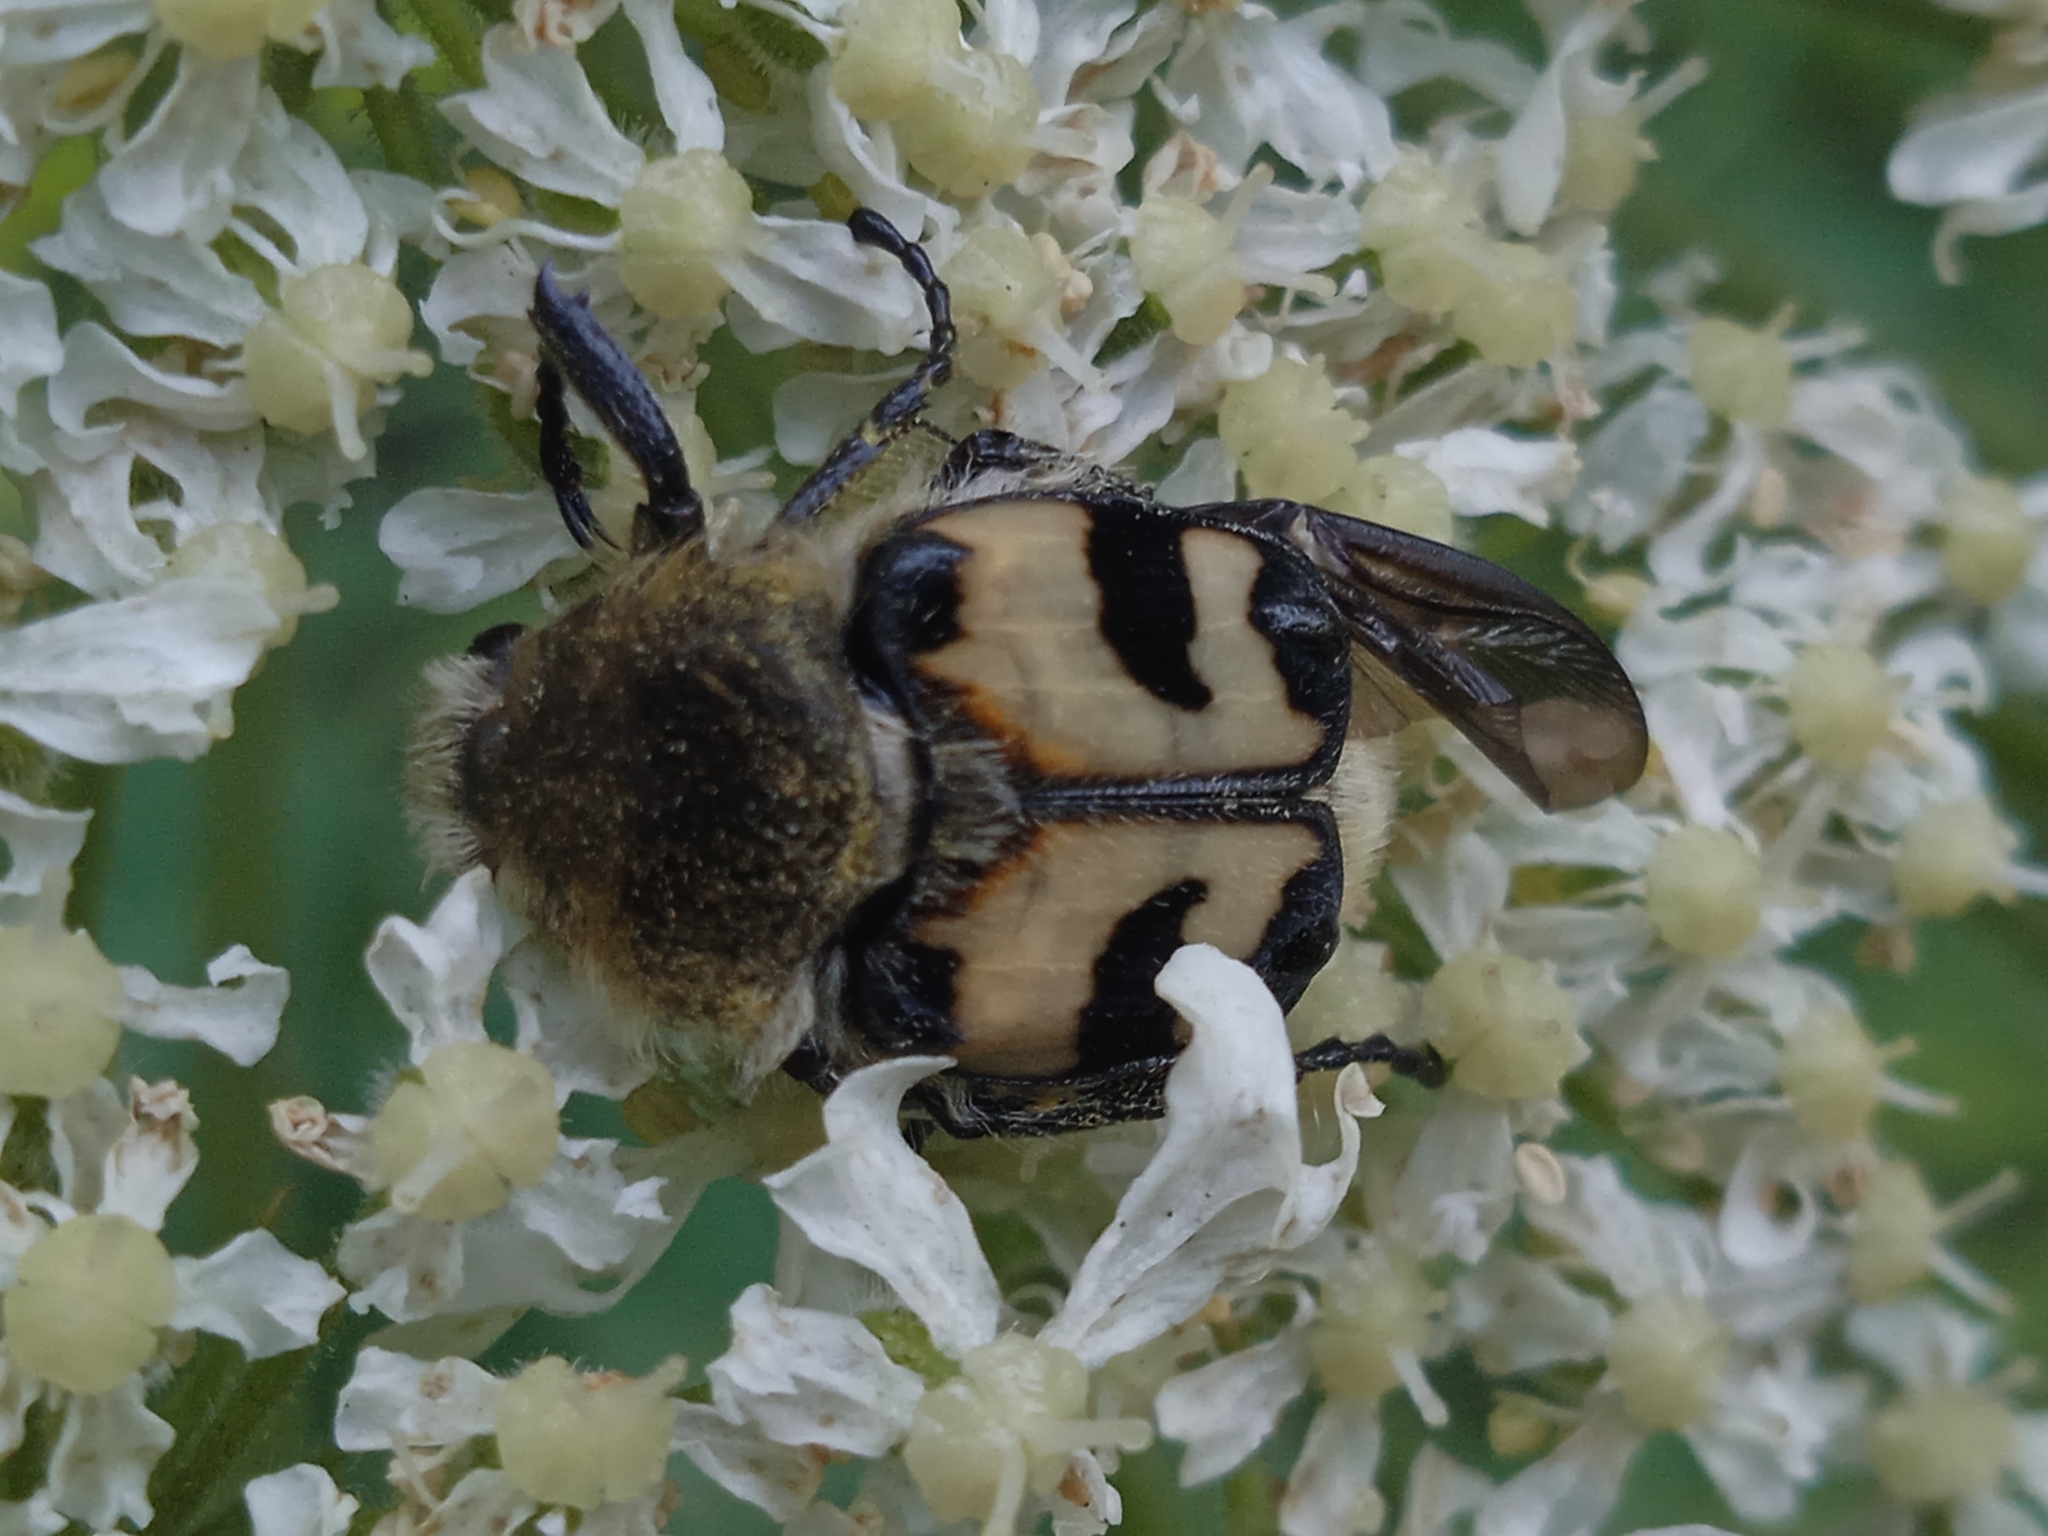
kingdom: Animalia
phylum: Arthropoda
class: Insecta
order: Coleoptera
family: Scarabaeidae
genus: Trichius
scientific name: Trichius fasciatus
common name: Bee beetle
